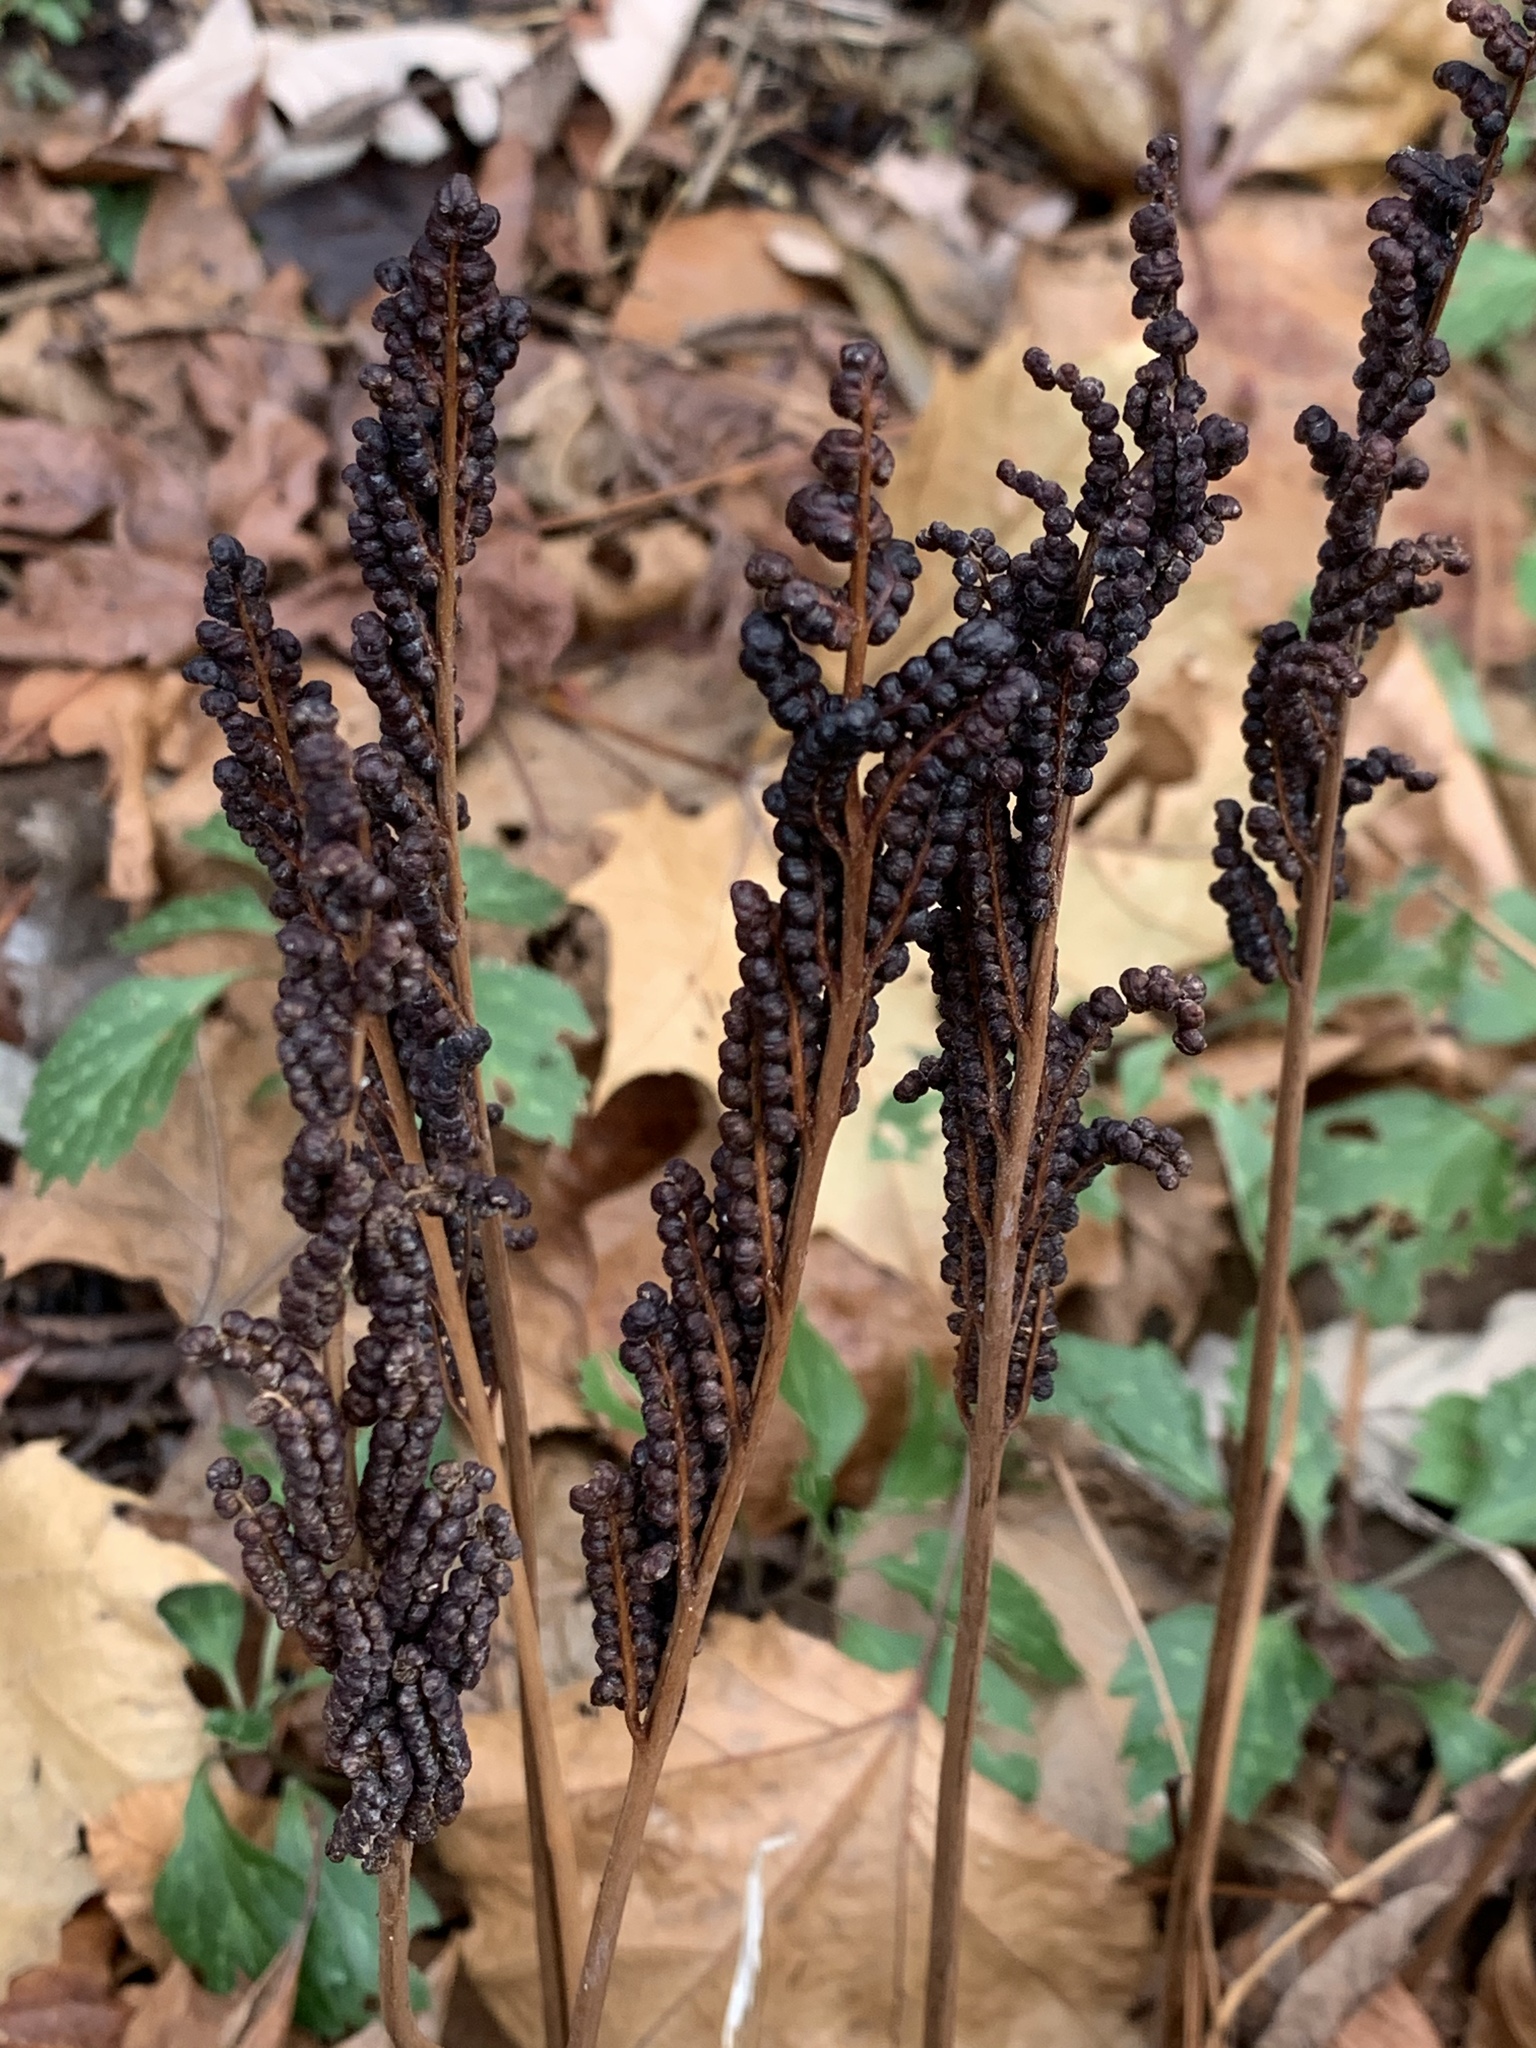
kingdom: Plantae
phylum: Tracheophyta
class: Polypodiopsida
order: Polypodiales
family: Onocleaceae
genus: Onoclea
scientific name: Onoclea sensibilis
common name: Sensitive fern
